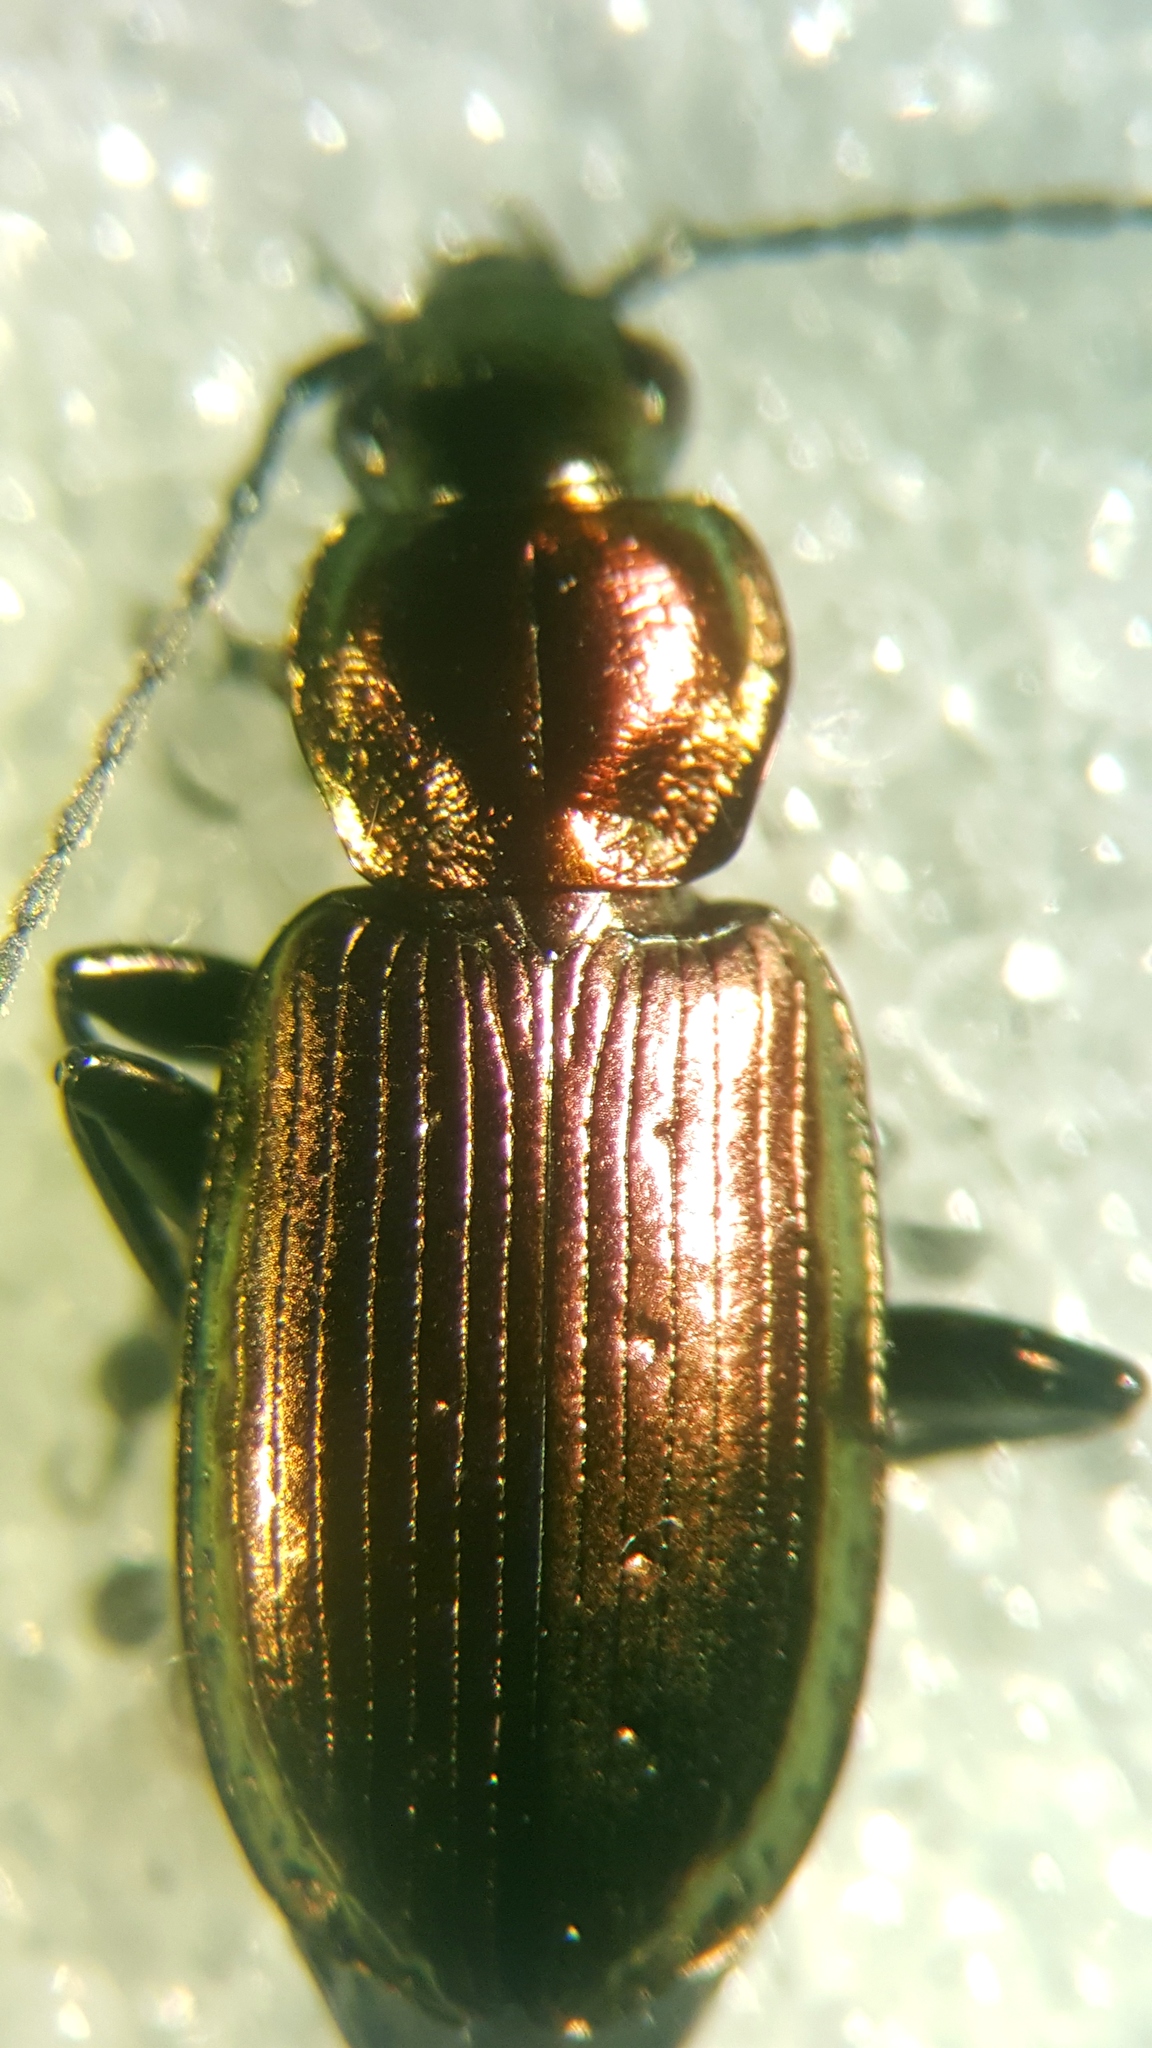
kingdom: Animalia
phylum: Arthropoda
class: Insecta
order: Coleoptera
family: Carabidae
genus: Agonum
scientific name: Agonum ericeti
